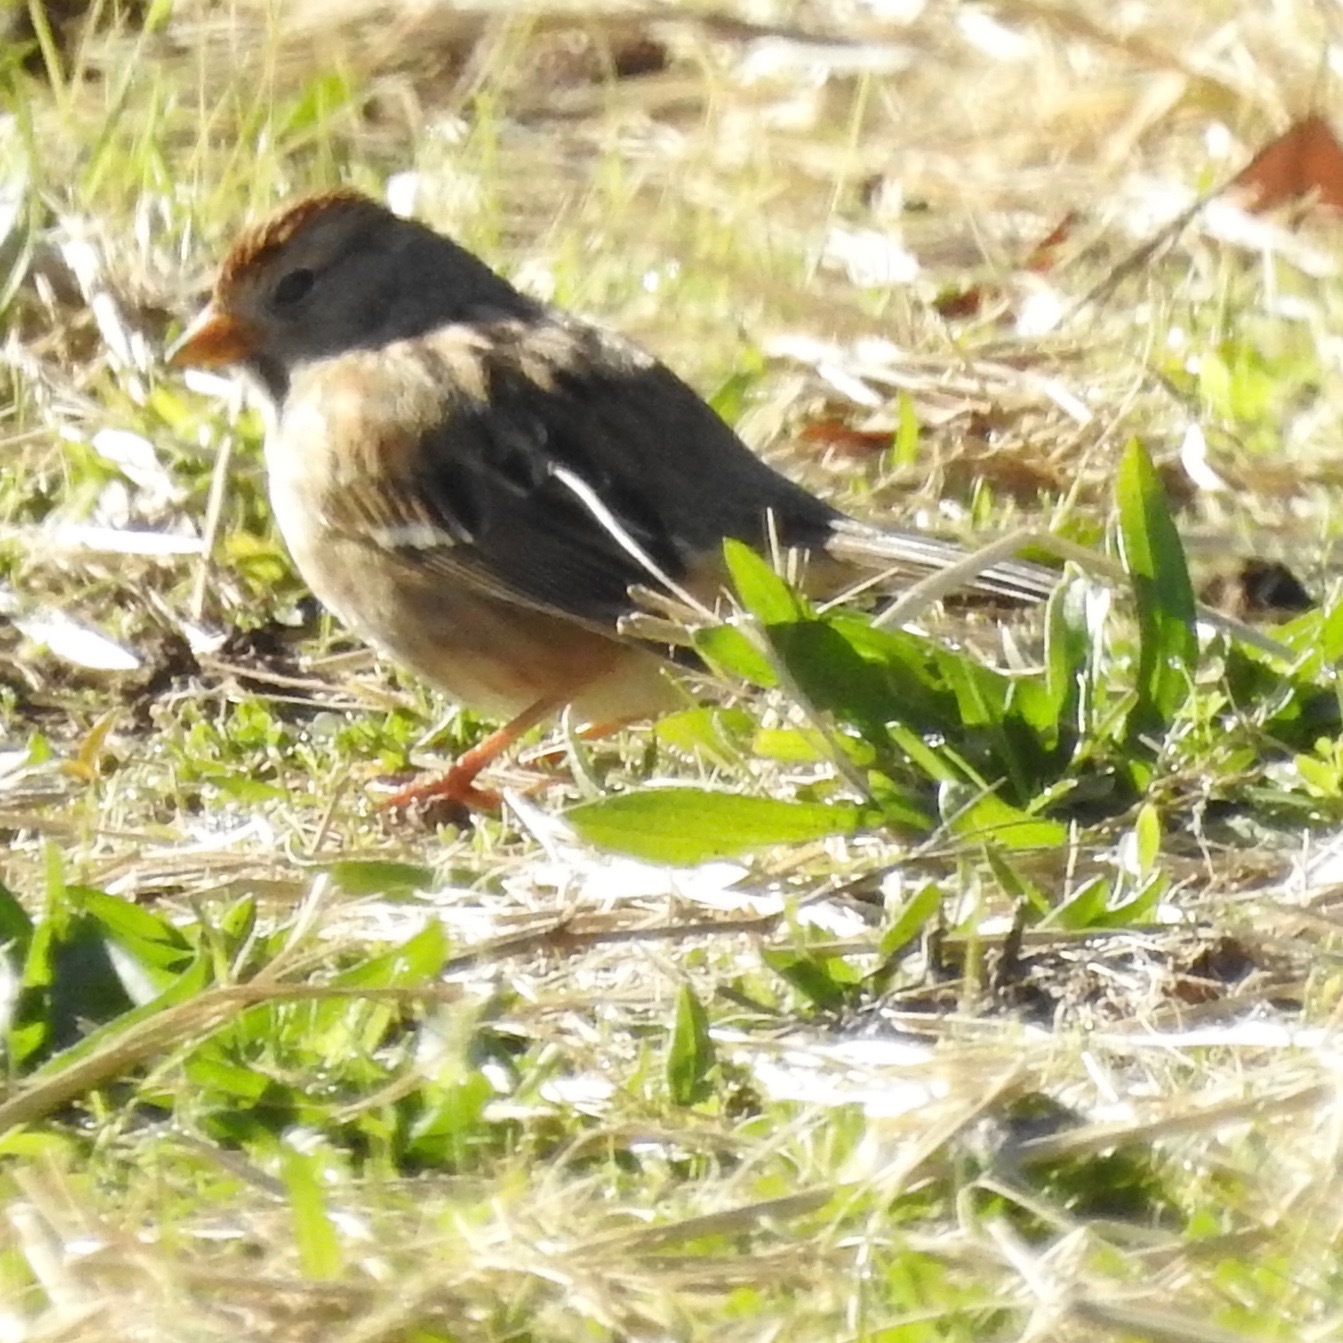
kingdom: Animalia
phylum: Chordata
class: Aves
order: Passeriformes
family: Passerellidae
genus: Zonotrichia
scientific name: Zonotrichia leucophrys
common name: White-crowned sparrow
